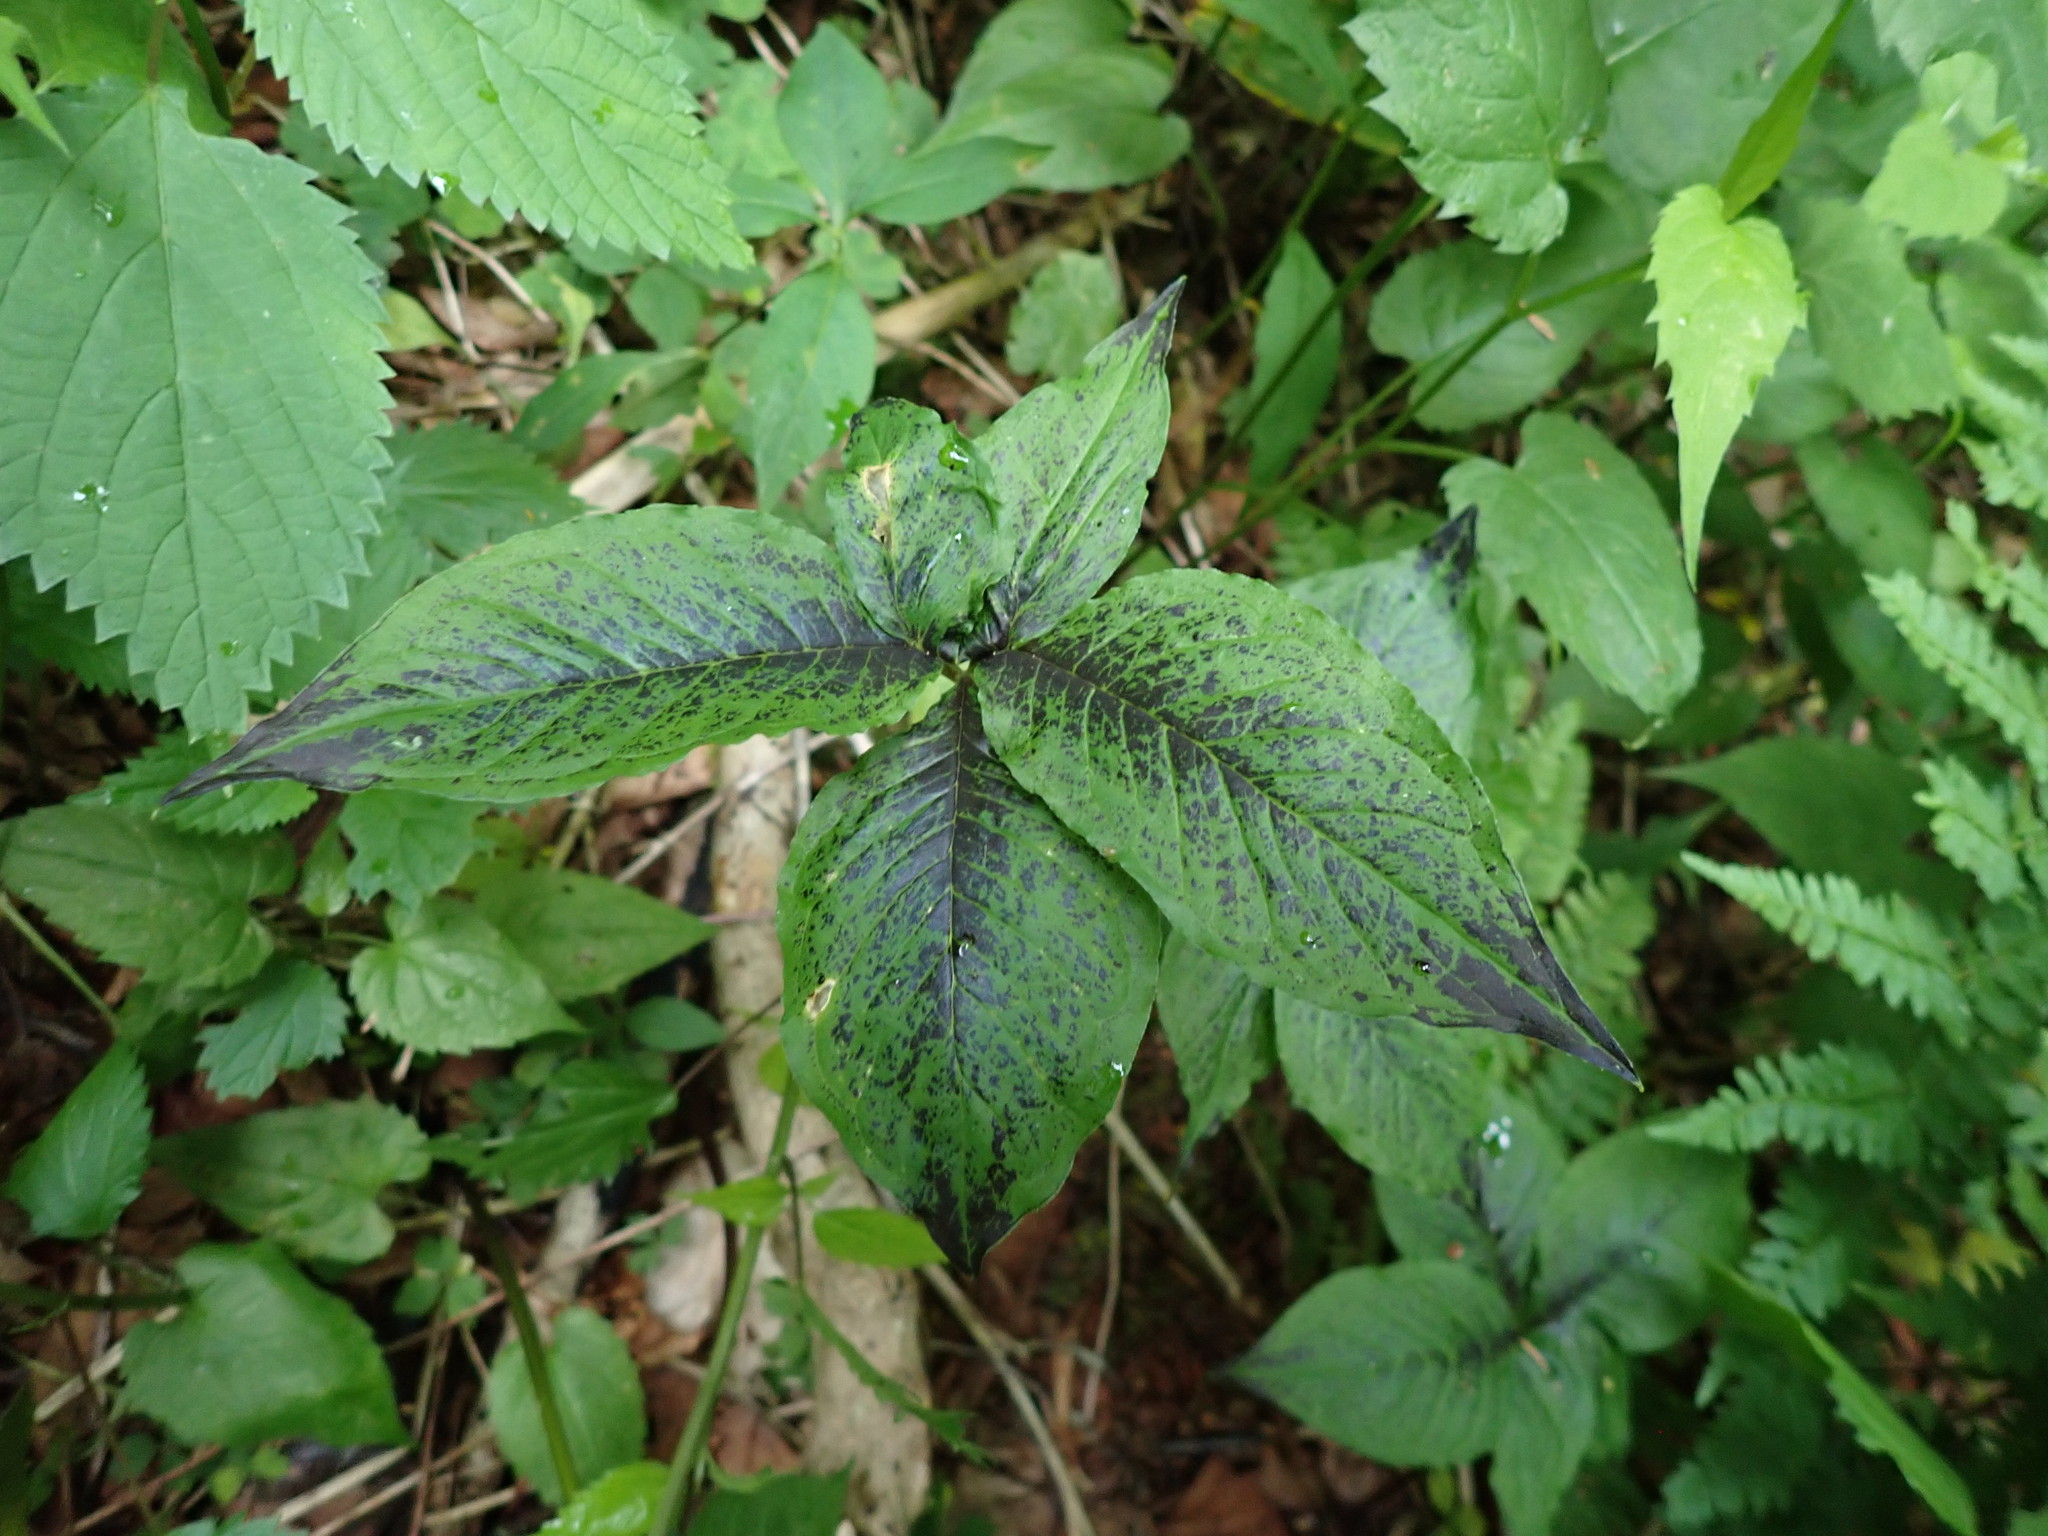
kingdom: Plantae
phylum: Tracheophyta
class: Liliopsida
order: Alismatales
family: Araceae
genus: Arisaema
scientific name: Arisaema quinatum
